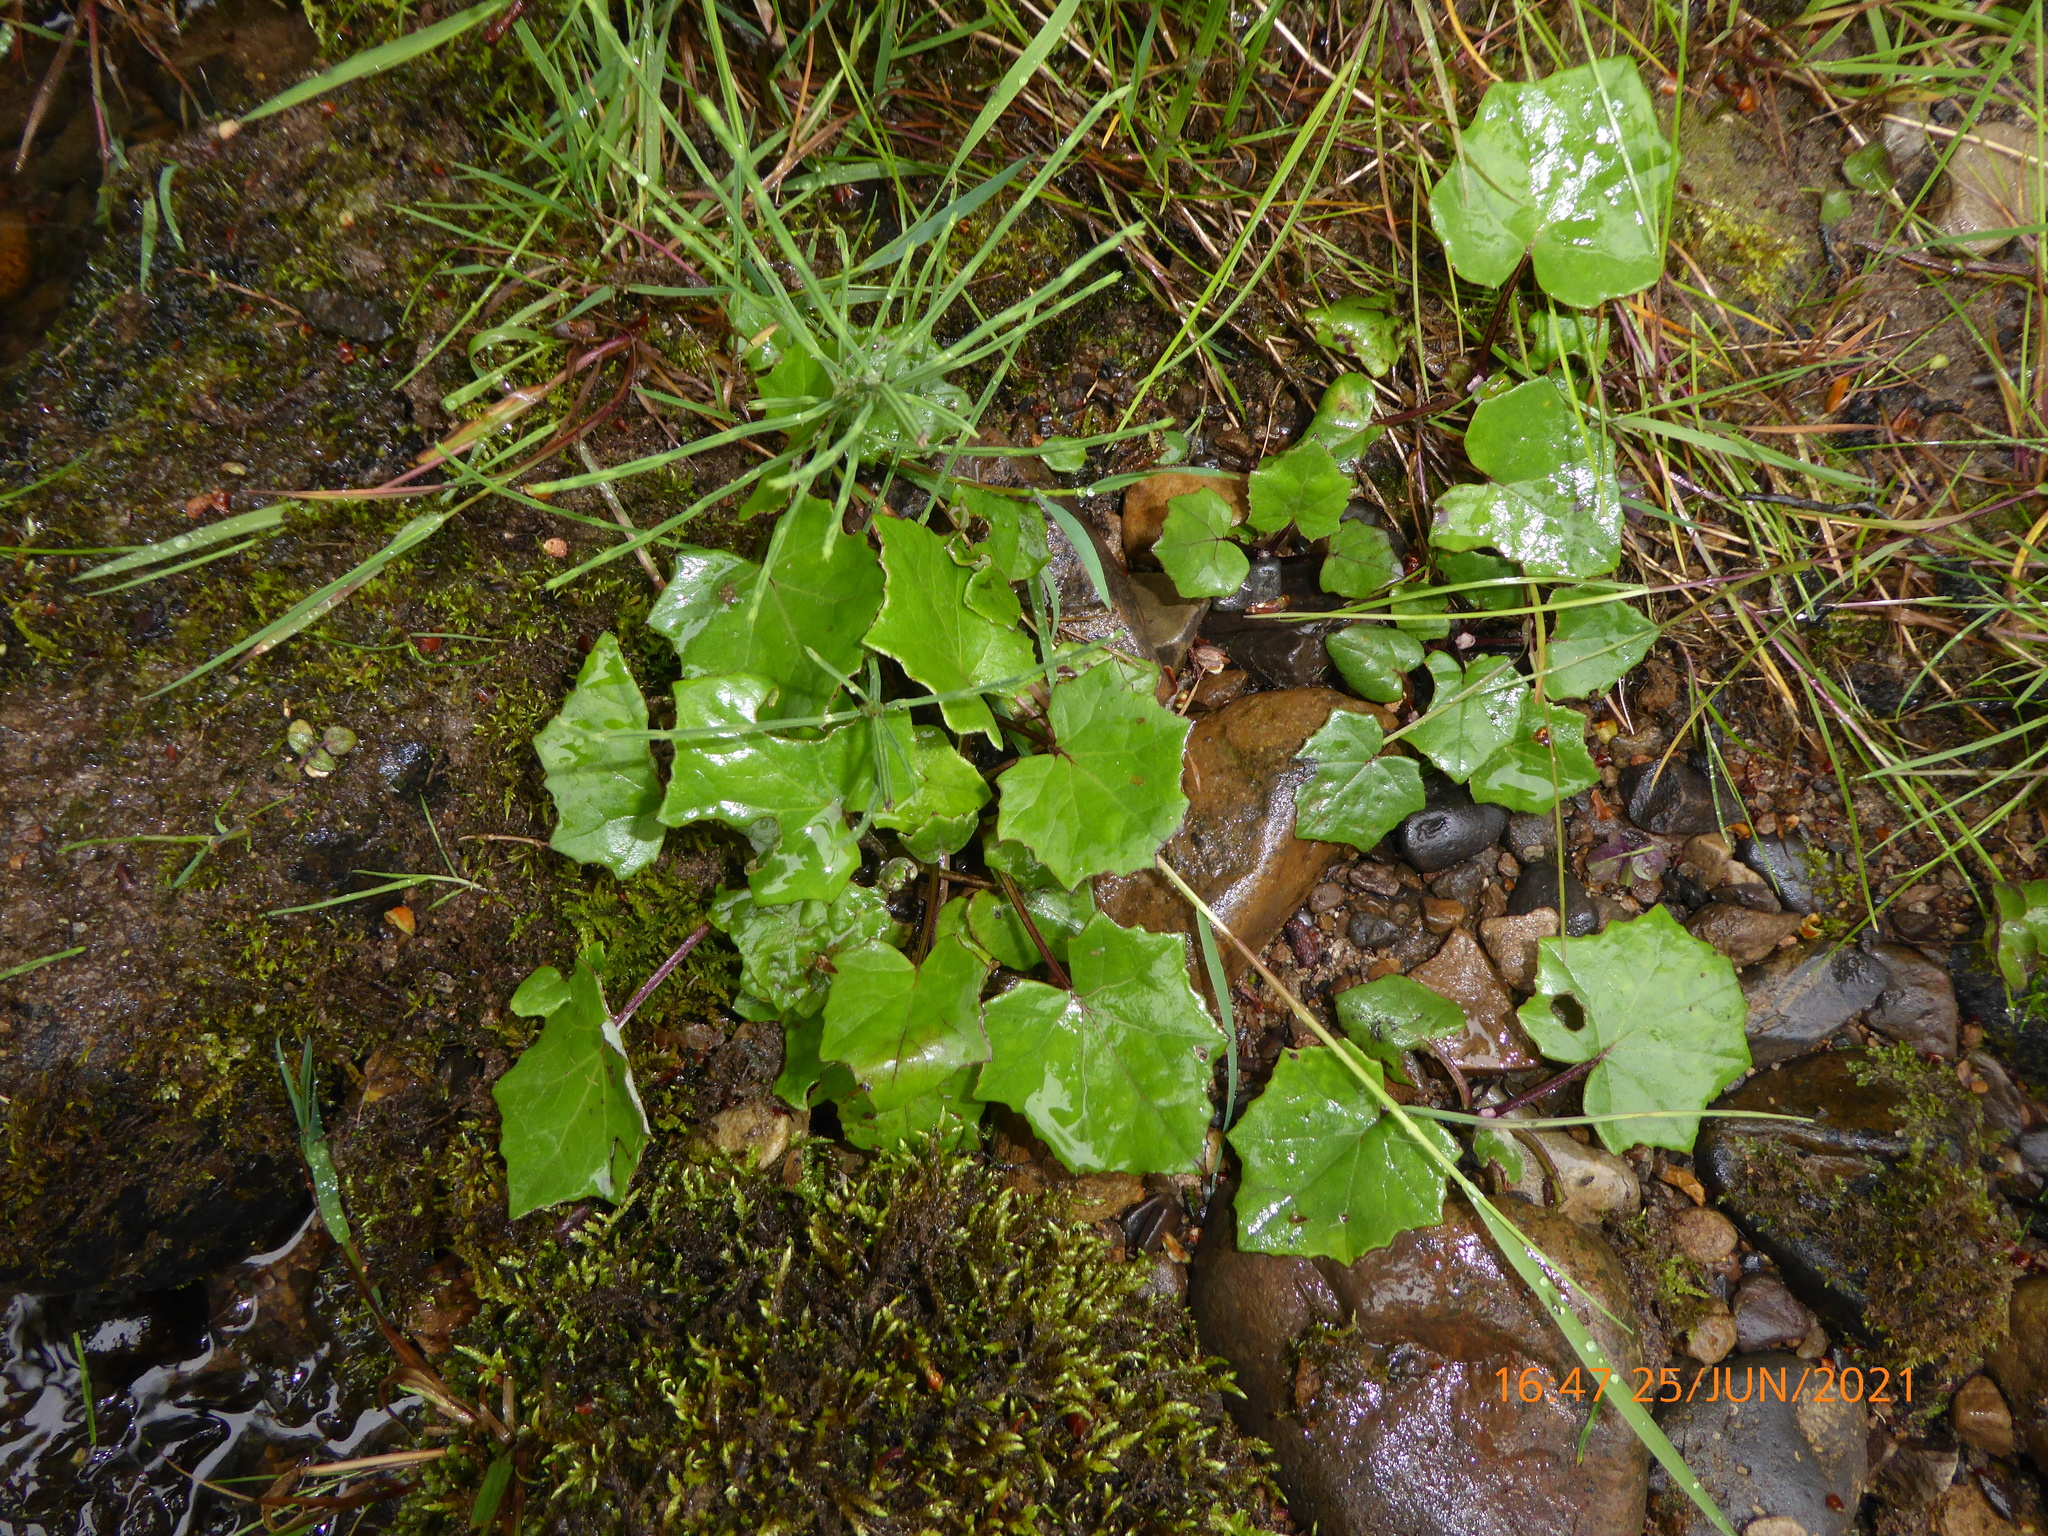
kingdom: Plantae
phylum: Tracheophyta
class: Magnoliopsida
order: Asterales
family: Asteraceae
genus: Tussilago
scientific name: Tussilago farfara
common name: Coltsfoot
